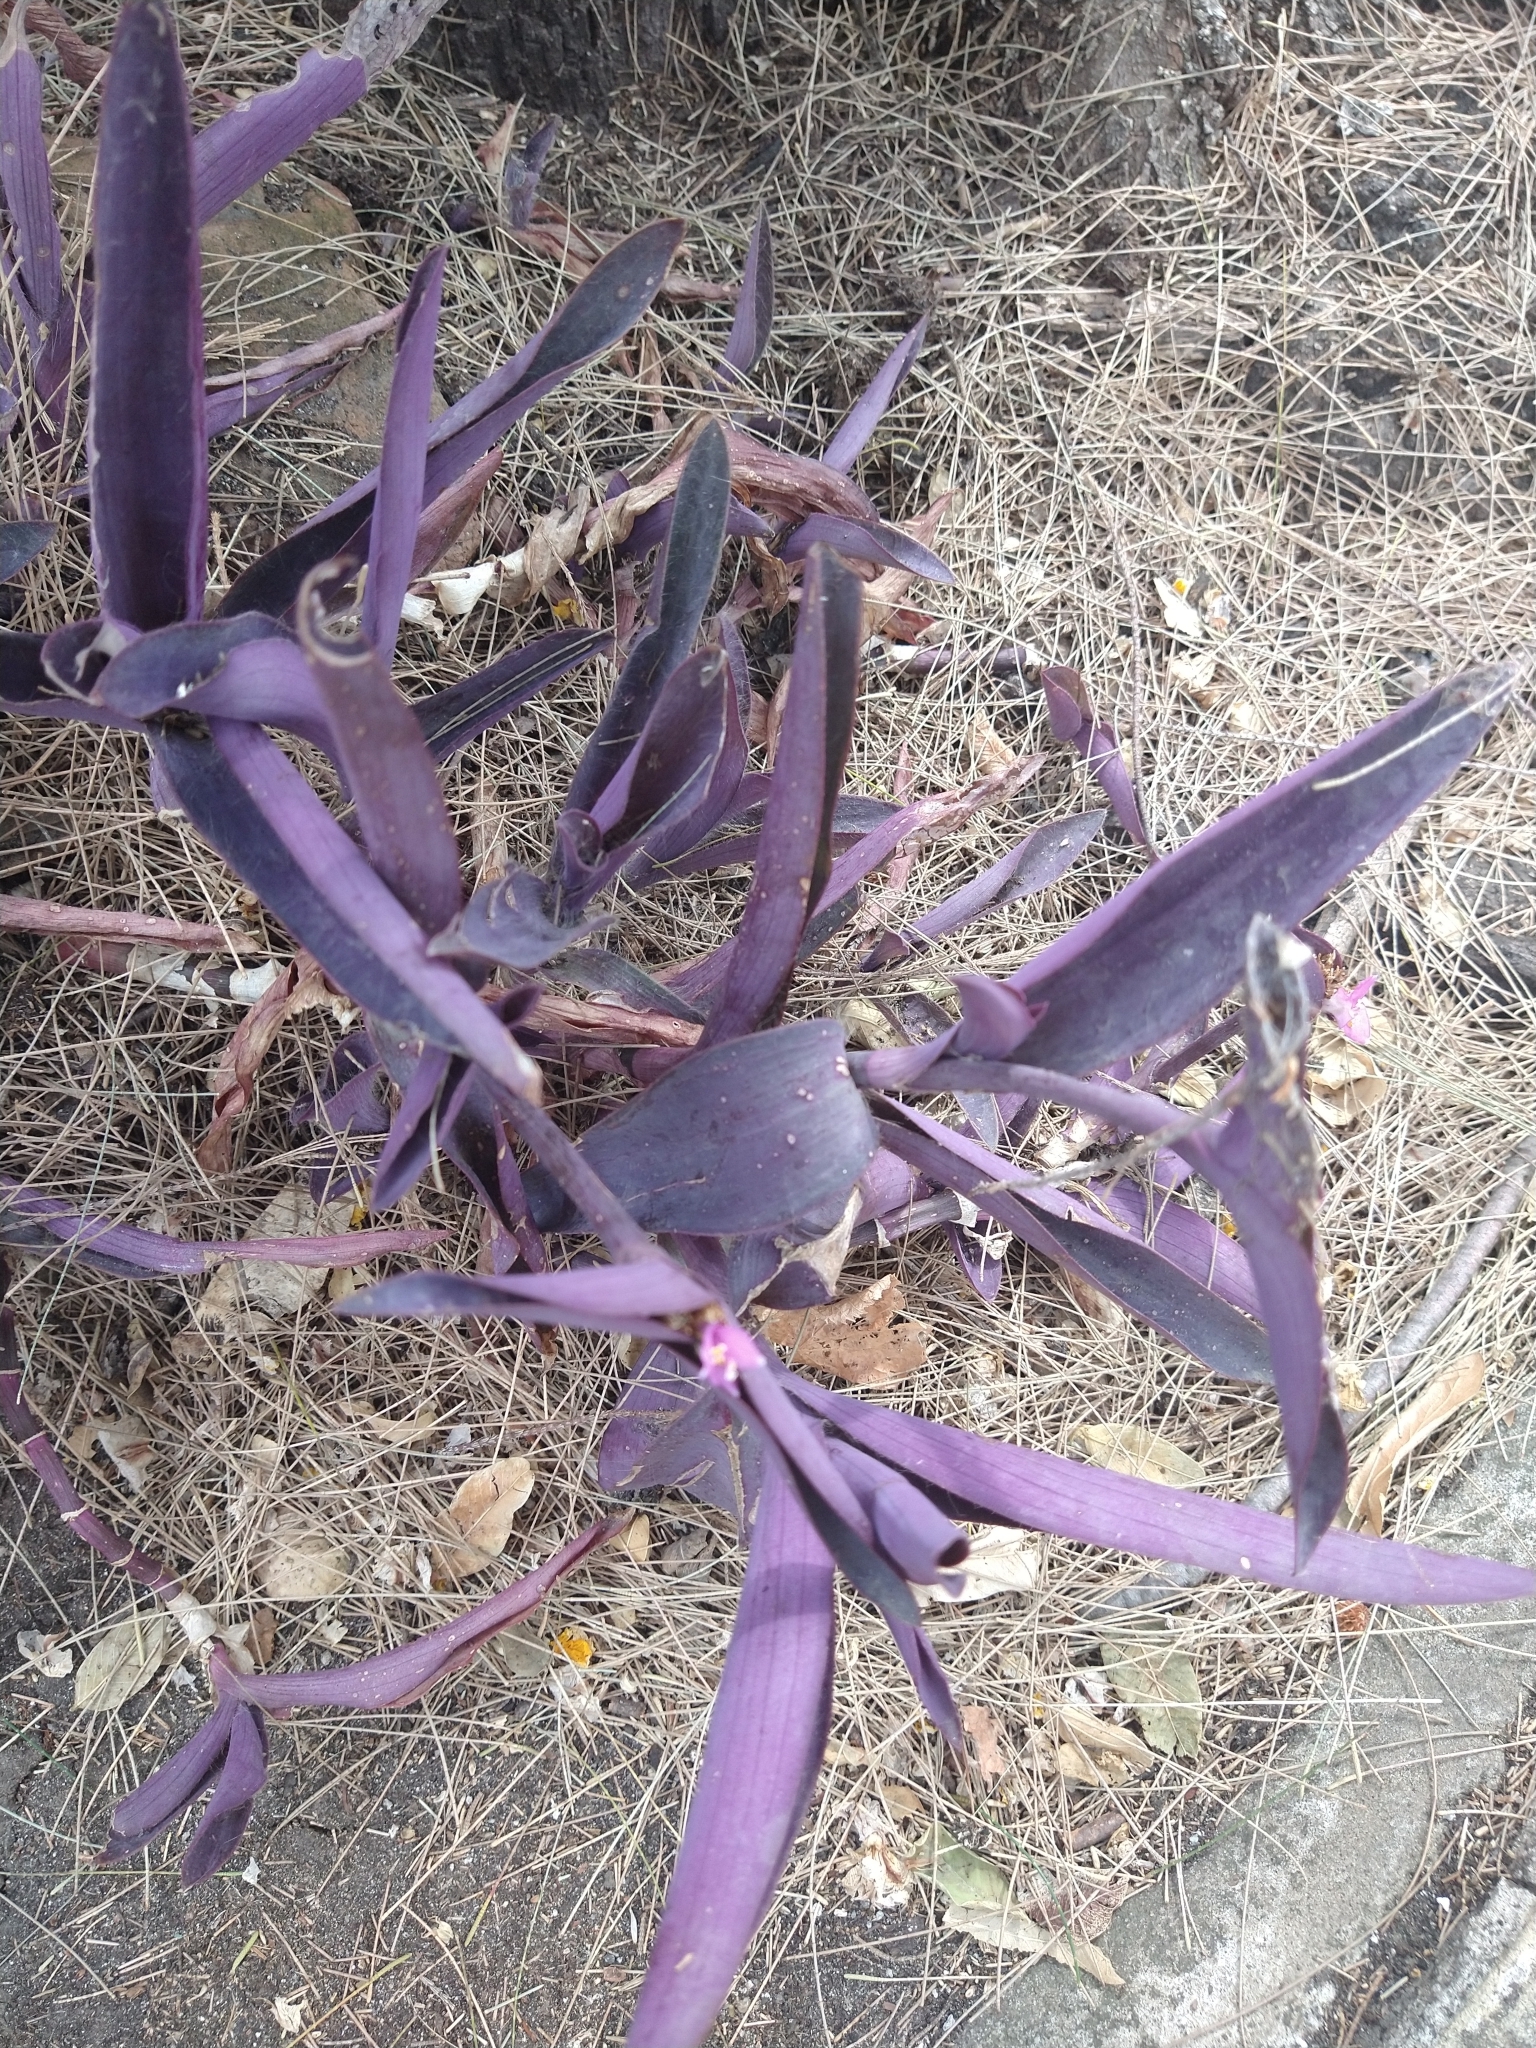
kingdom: Plantae
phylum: Tracheophyta
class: Liliopsida
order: Commelinales
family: Commelinaceae
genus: Tradescantia
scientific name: Tradescantia pallida
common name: Purpleheart
